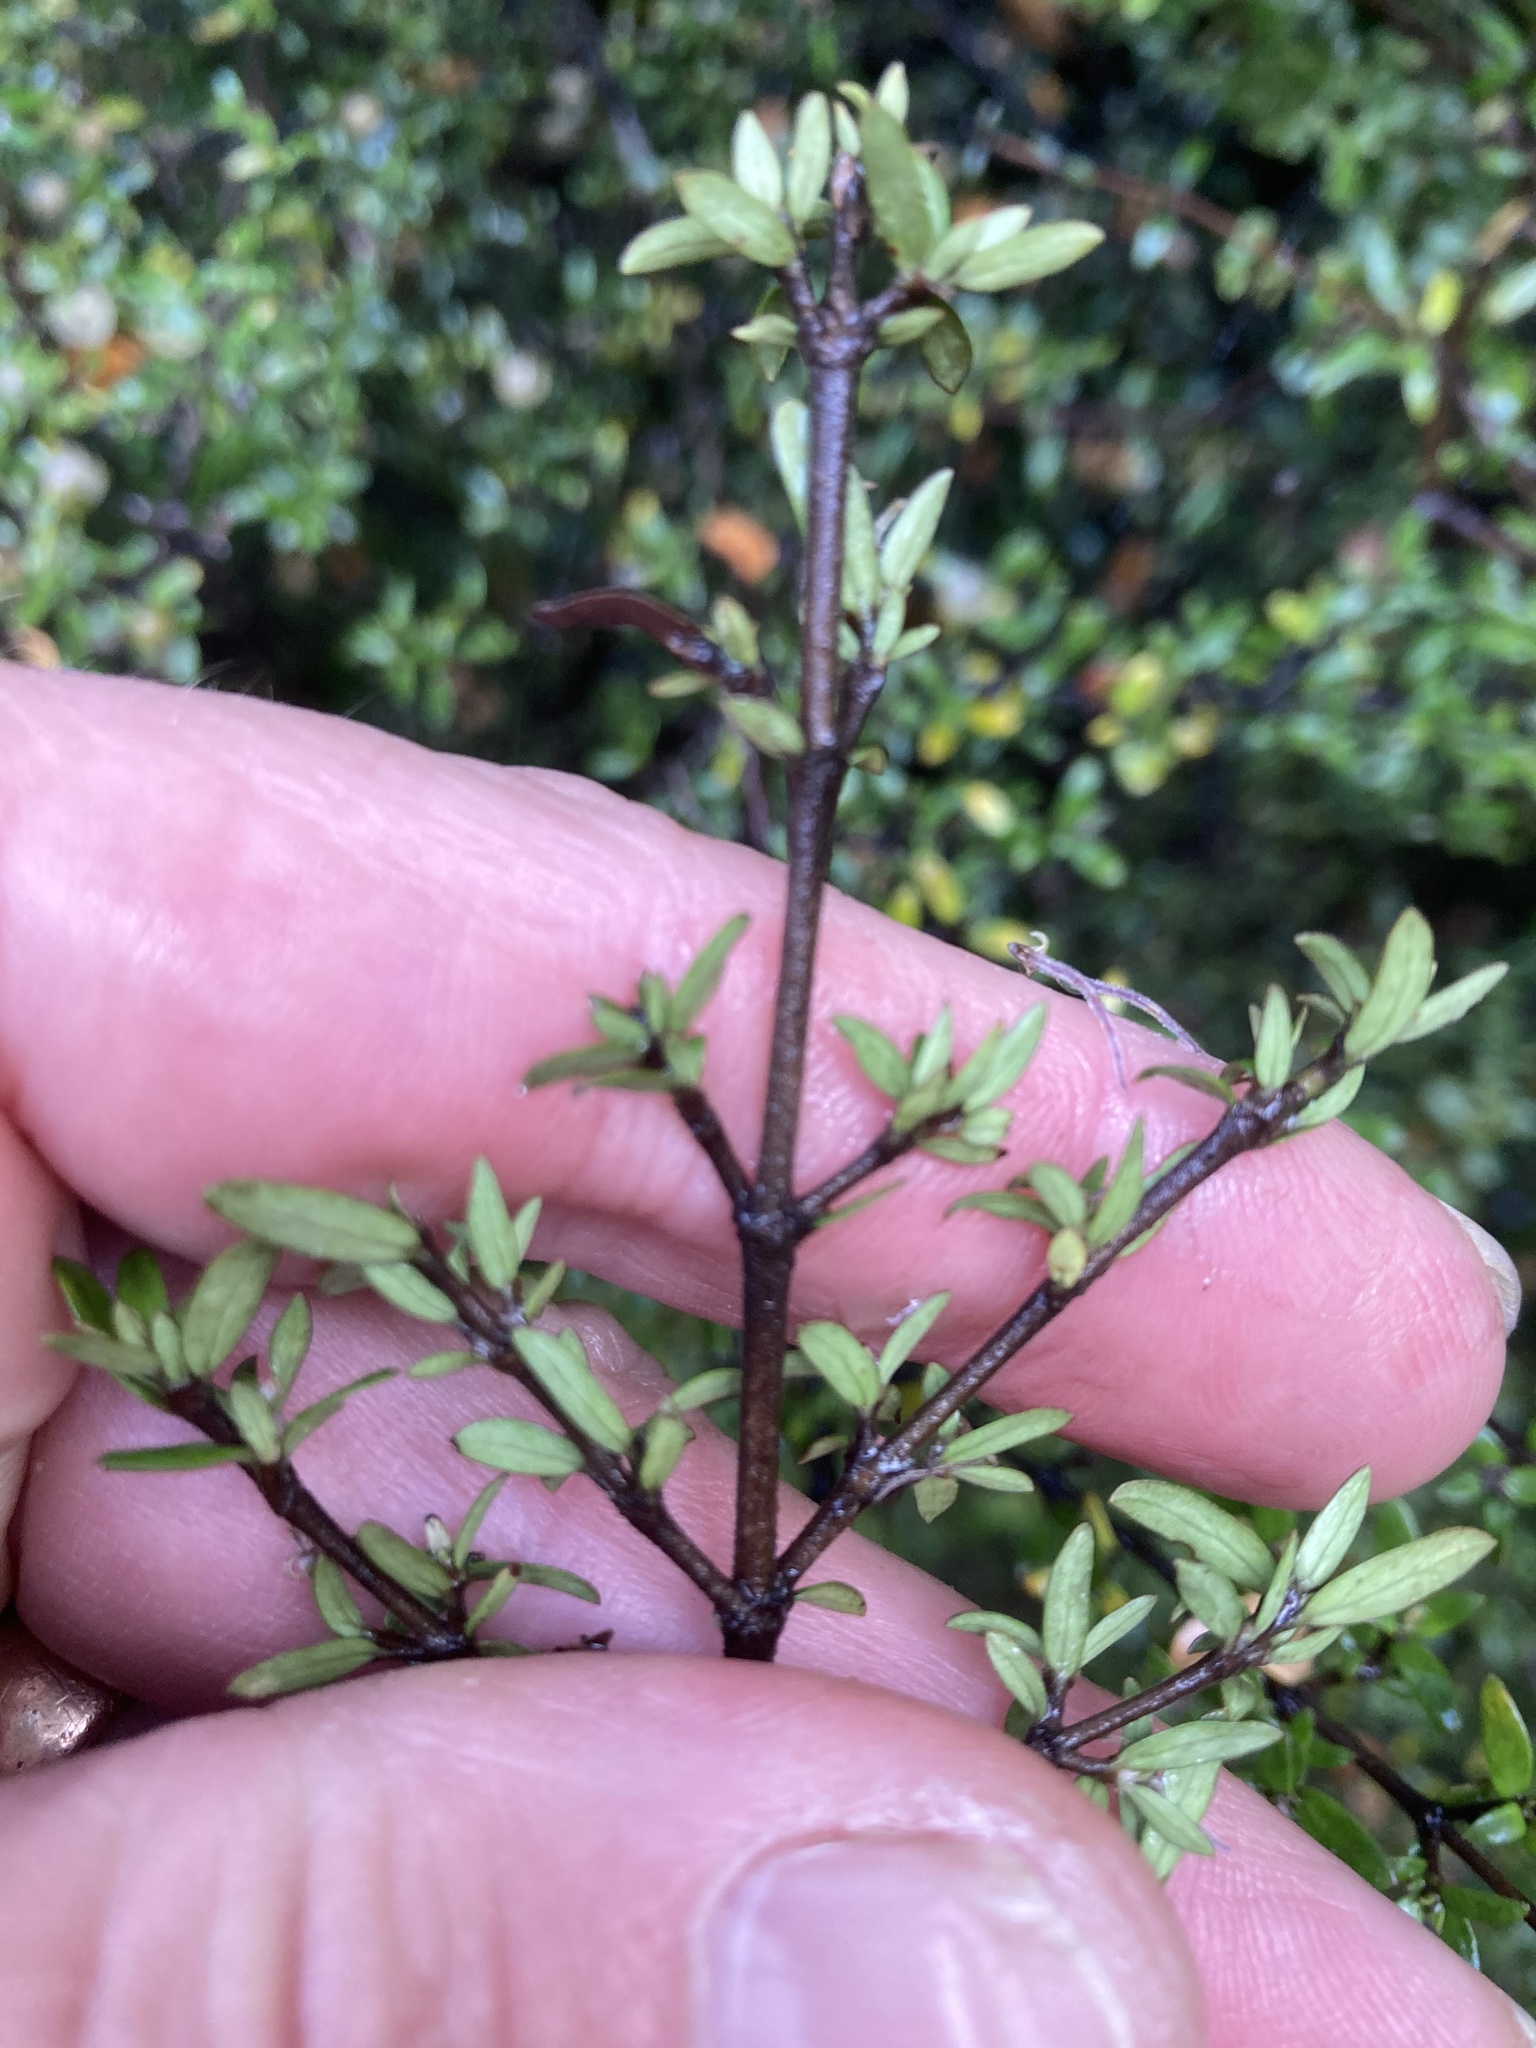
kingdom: Plantae
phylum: Tracheophyta
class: Magnoliopsida
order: Gentianales
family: Rubiaceae
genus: Coprosma
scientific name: Coprosma microcarpa
